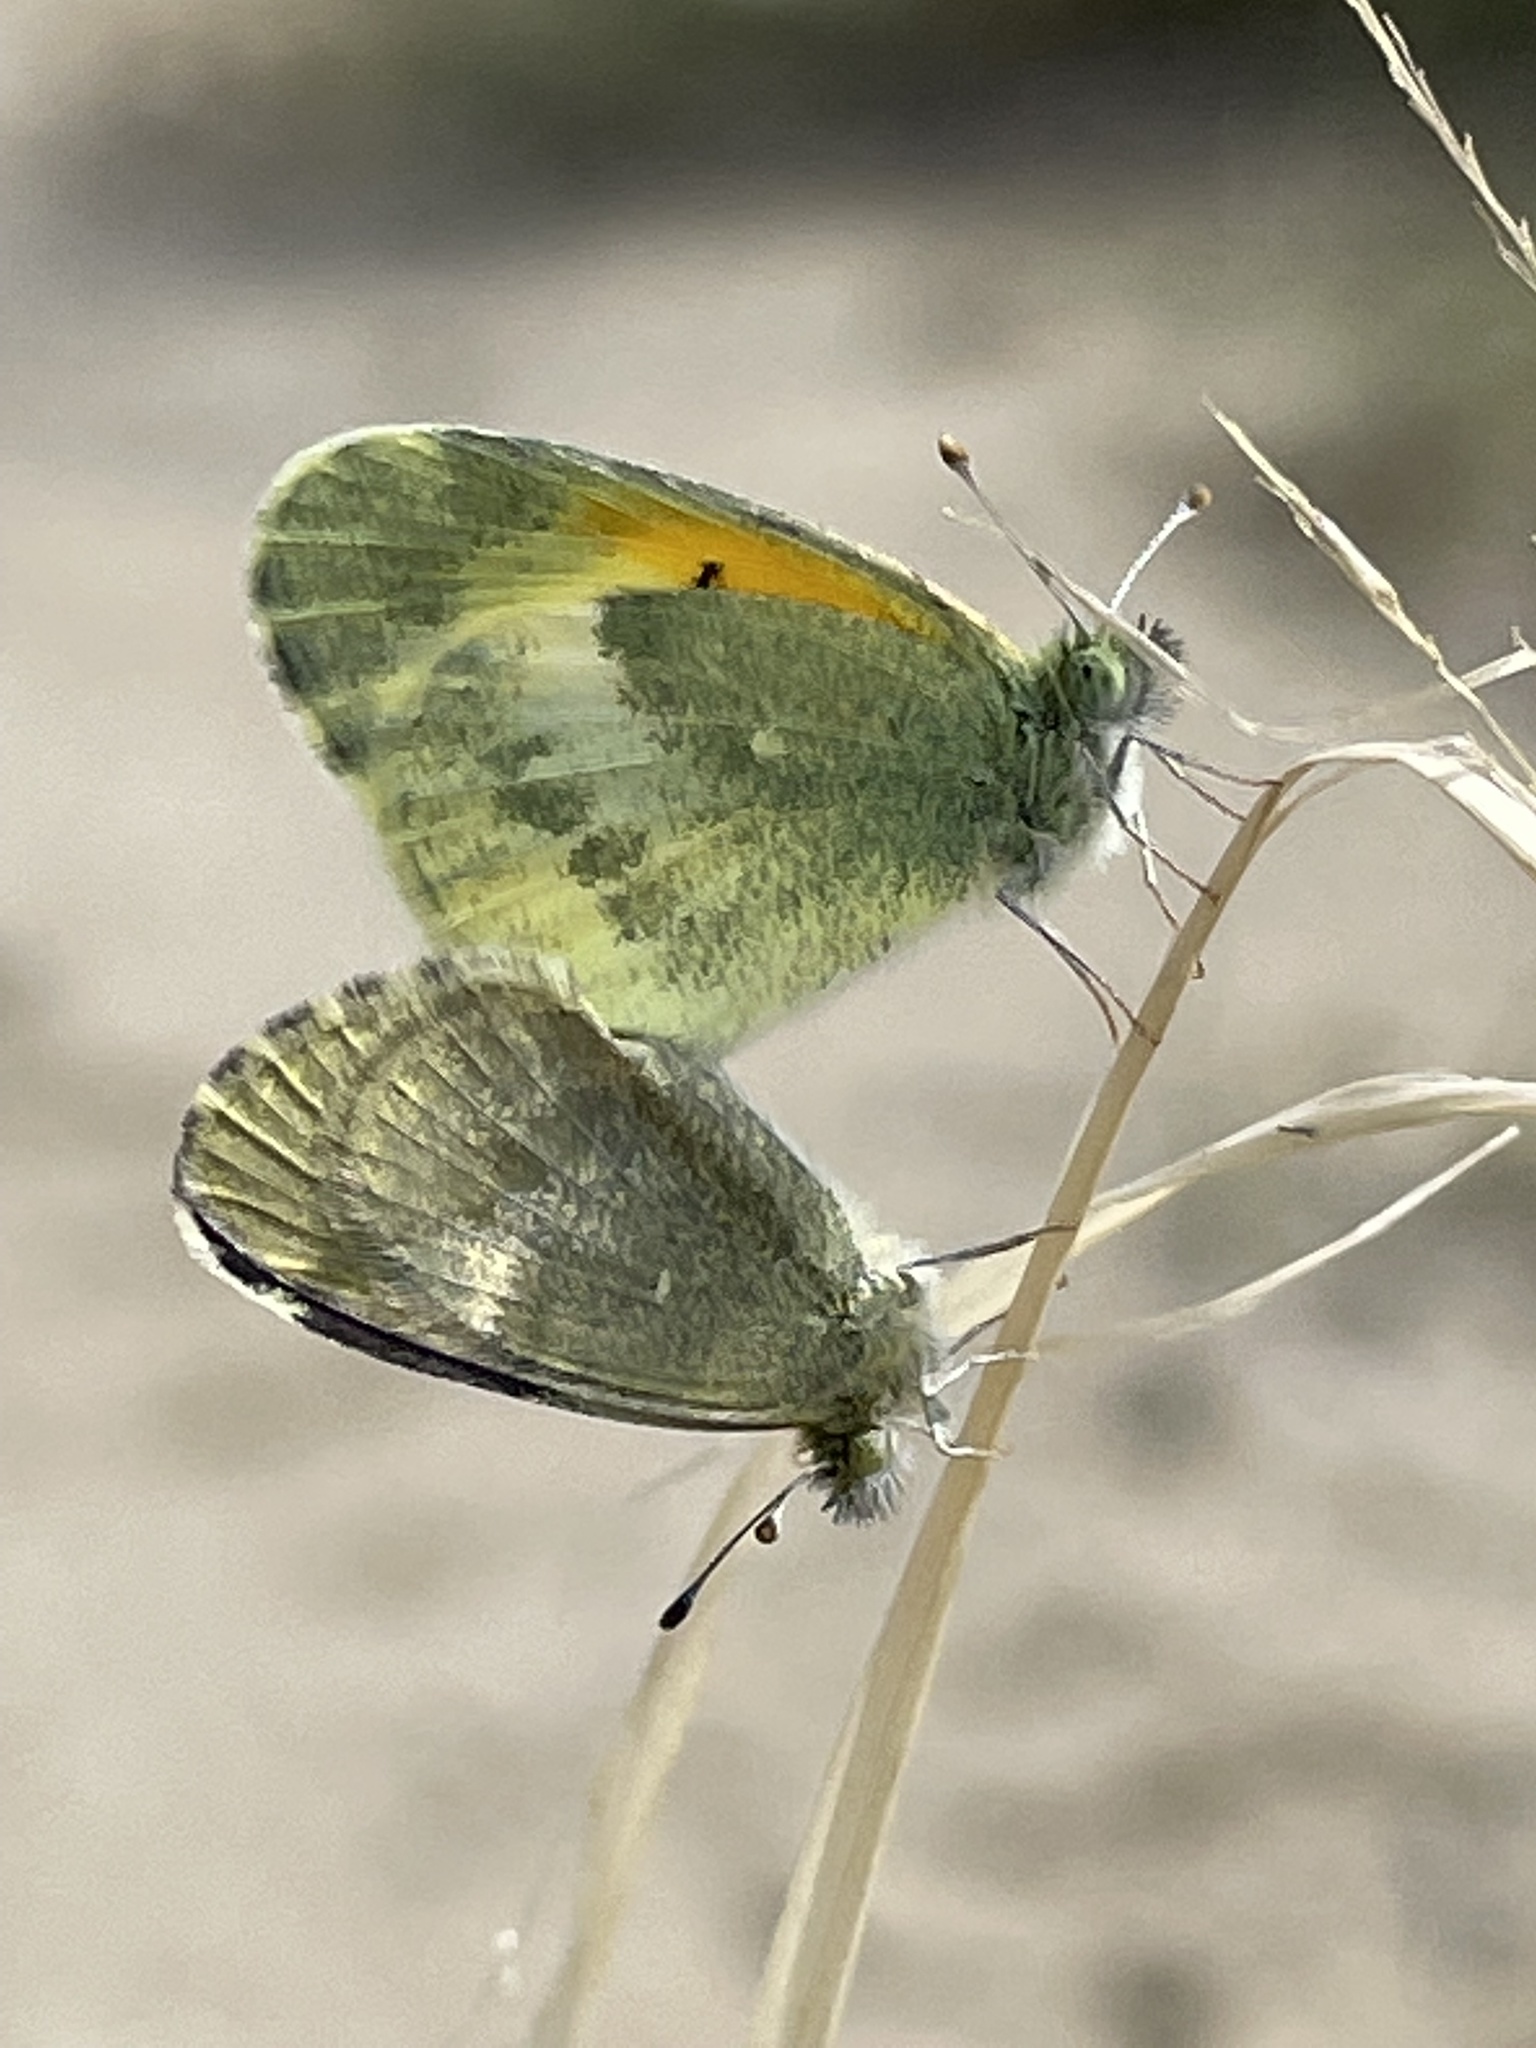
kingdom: Animalia
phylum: Arthropoda
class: Insecta
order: Lepidoptera
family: Pieridae
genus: Nathalis
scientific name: Nathalis iole
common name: Dainty sulphur
